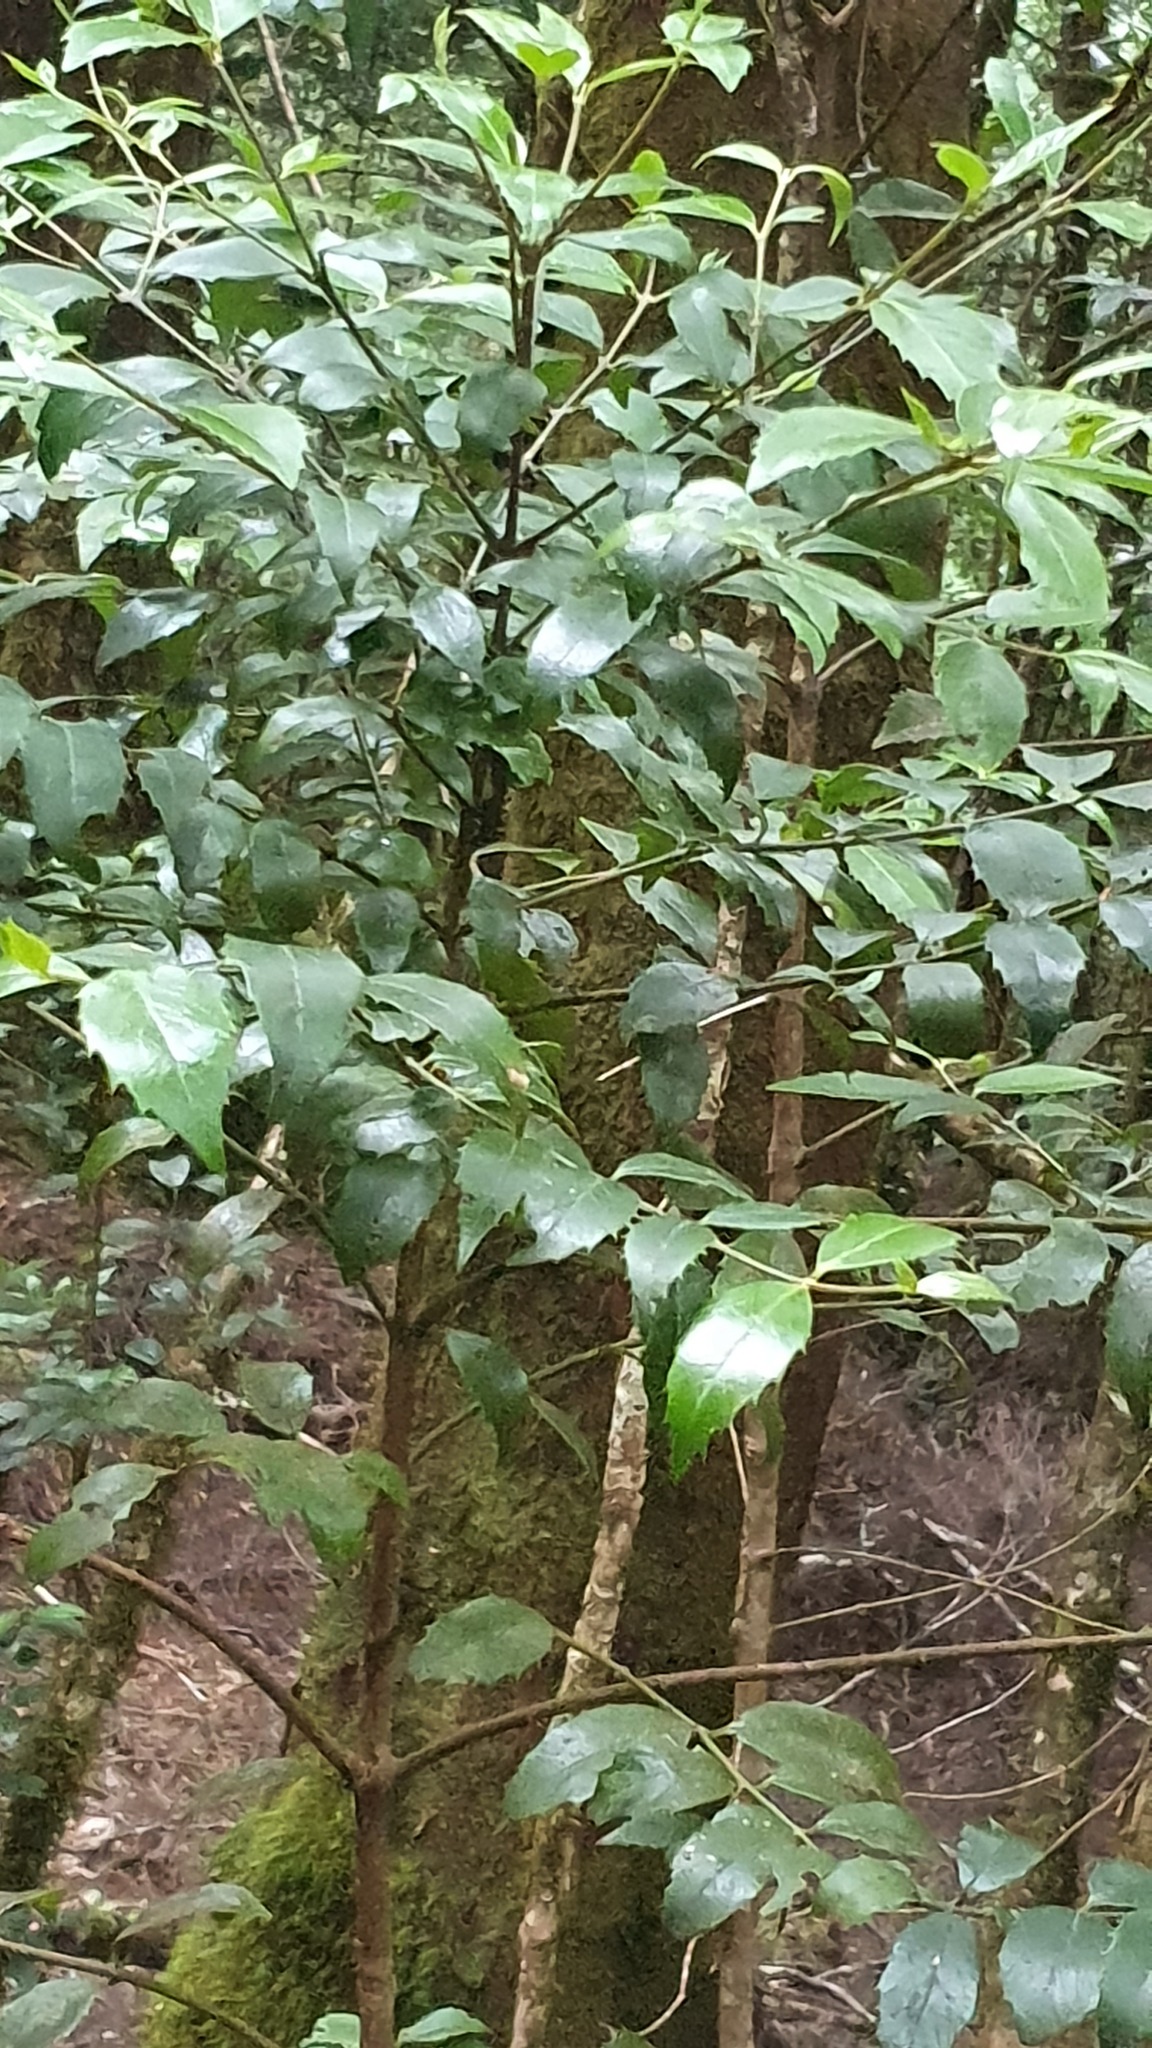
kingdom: Plantae
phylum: Tracheophyta
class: Magnoliopsida
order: Laurales
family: Atherospermataceae
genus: Atherosperma
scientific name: Atherosperma moschatum
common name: Tasmanian-sassafras
